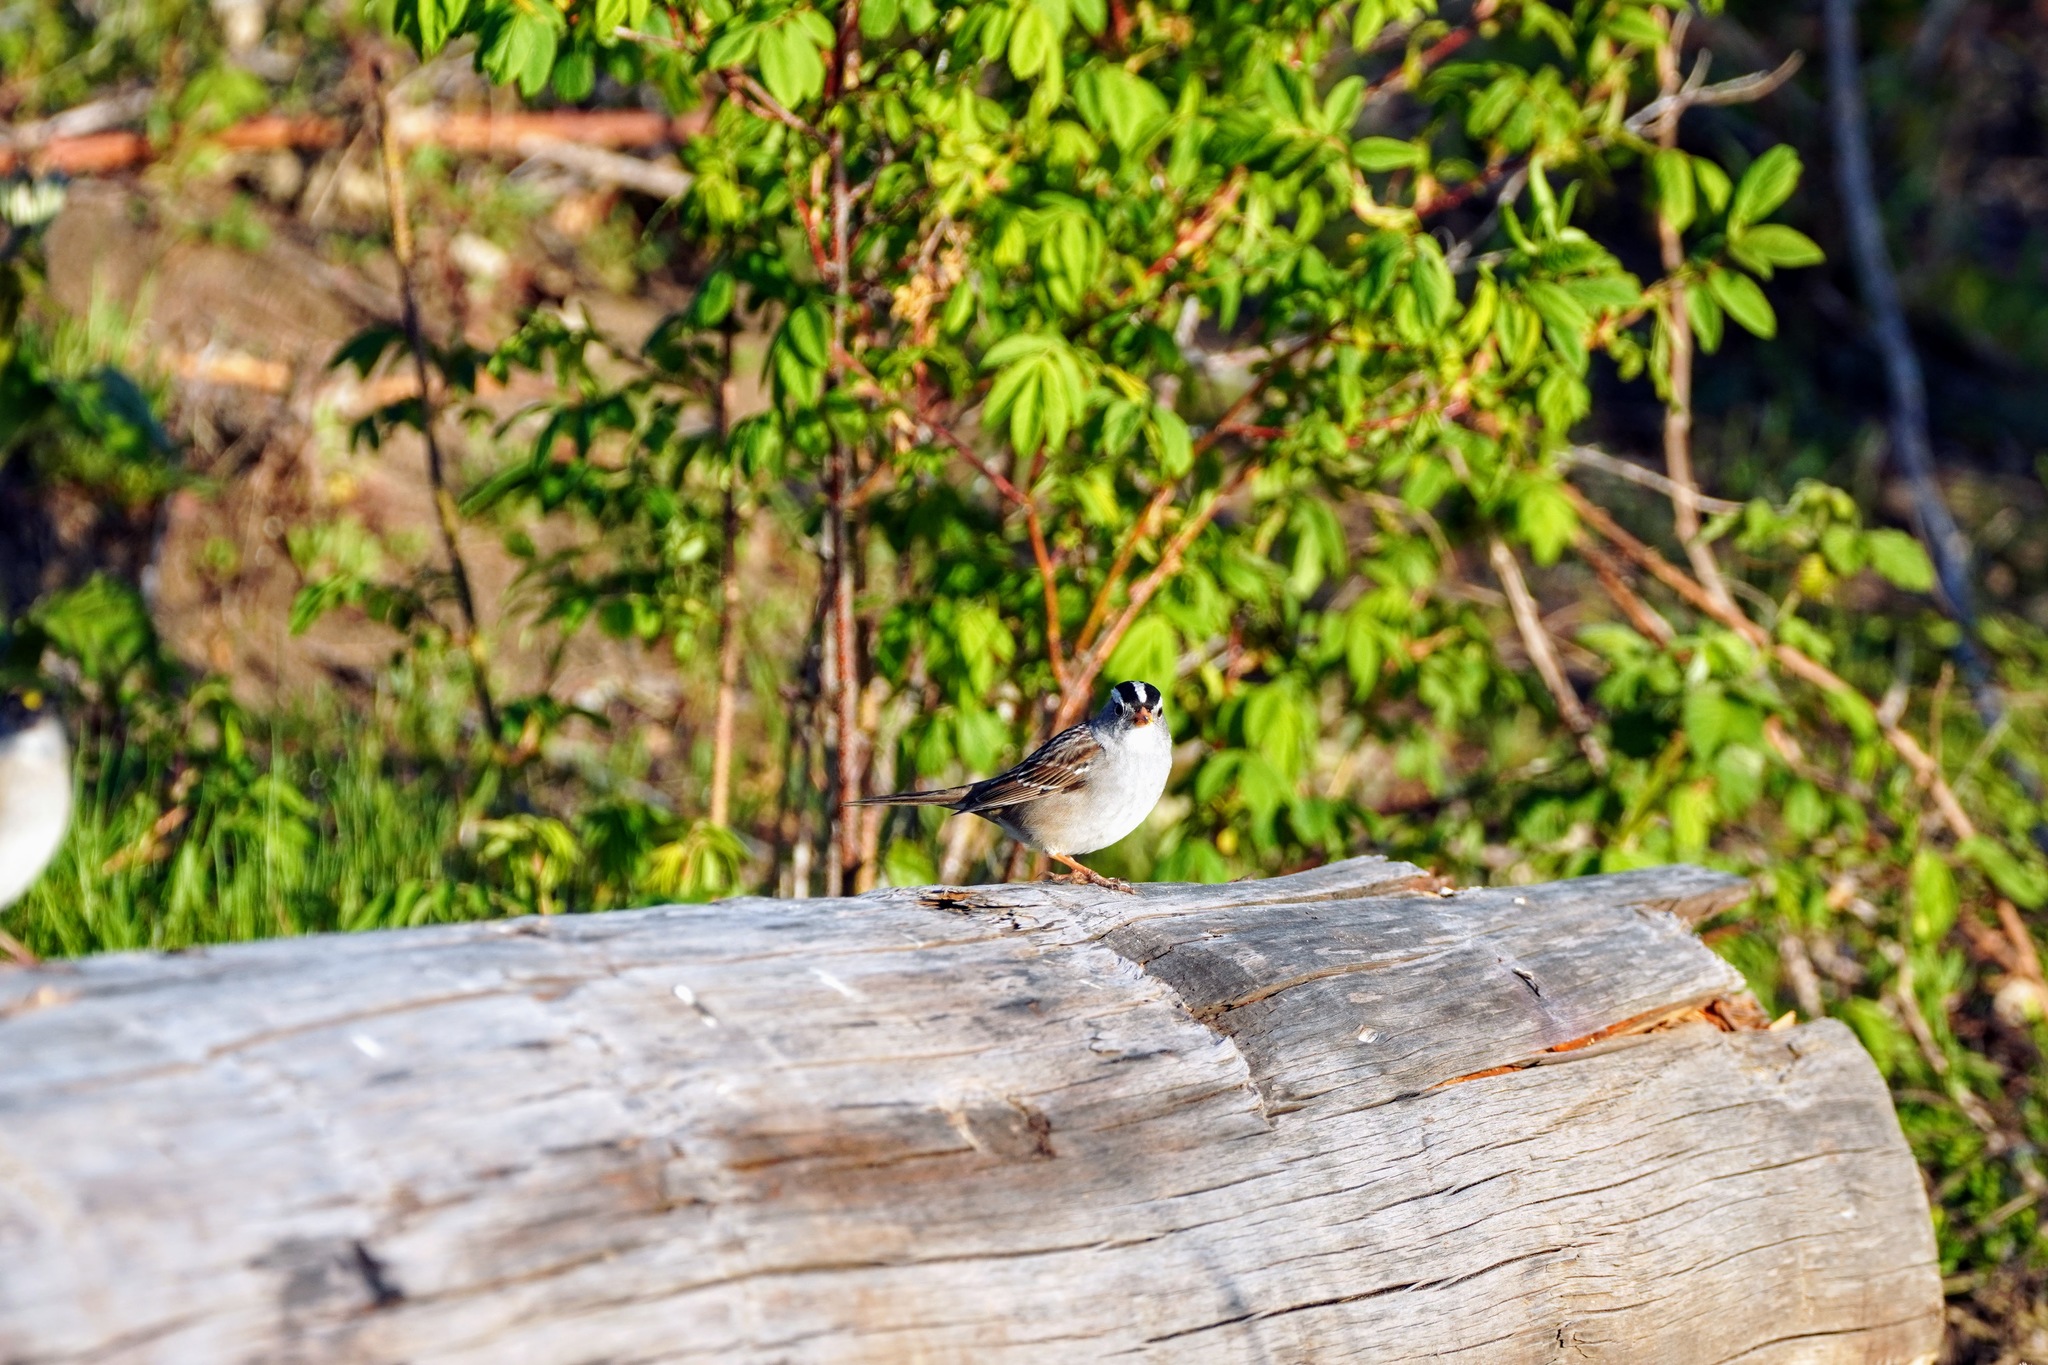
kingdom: Animalia
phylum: Chordata
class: Aves
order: Passeriformes
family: Passerellidae
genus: Zonotrichia
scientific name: Zonotrichia atricapilla
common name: Golden-crowned sparrow
